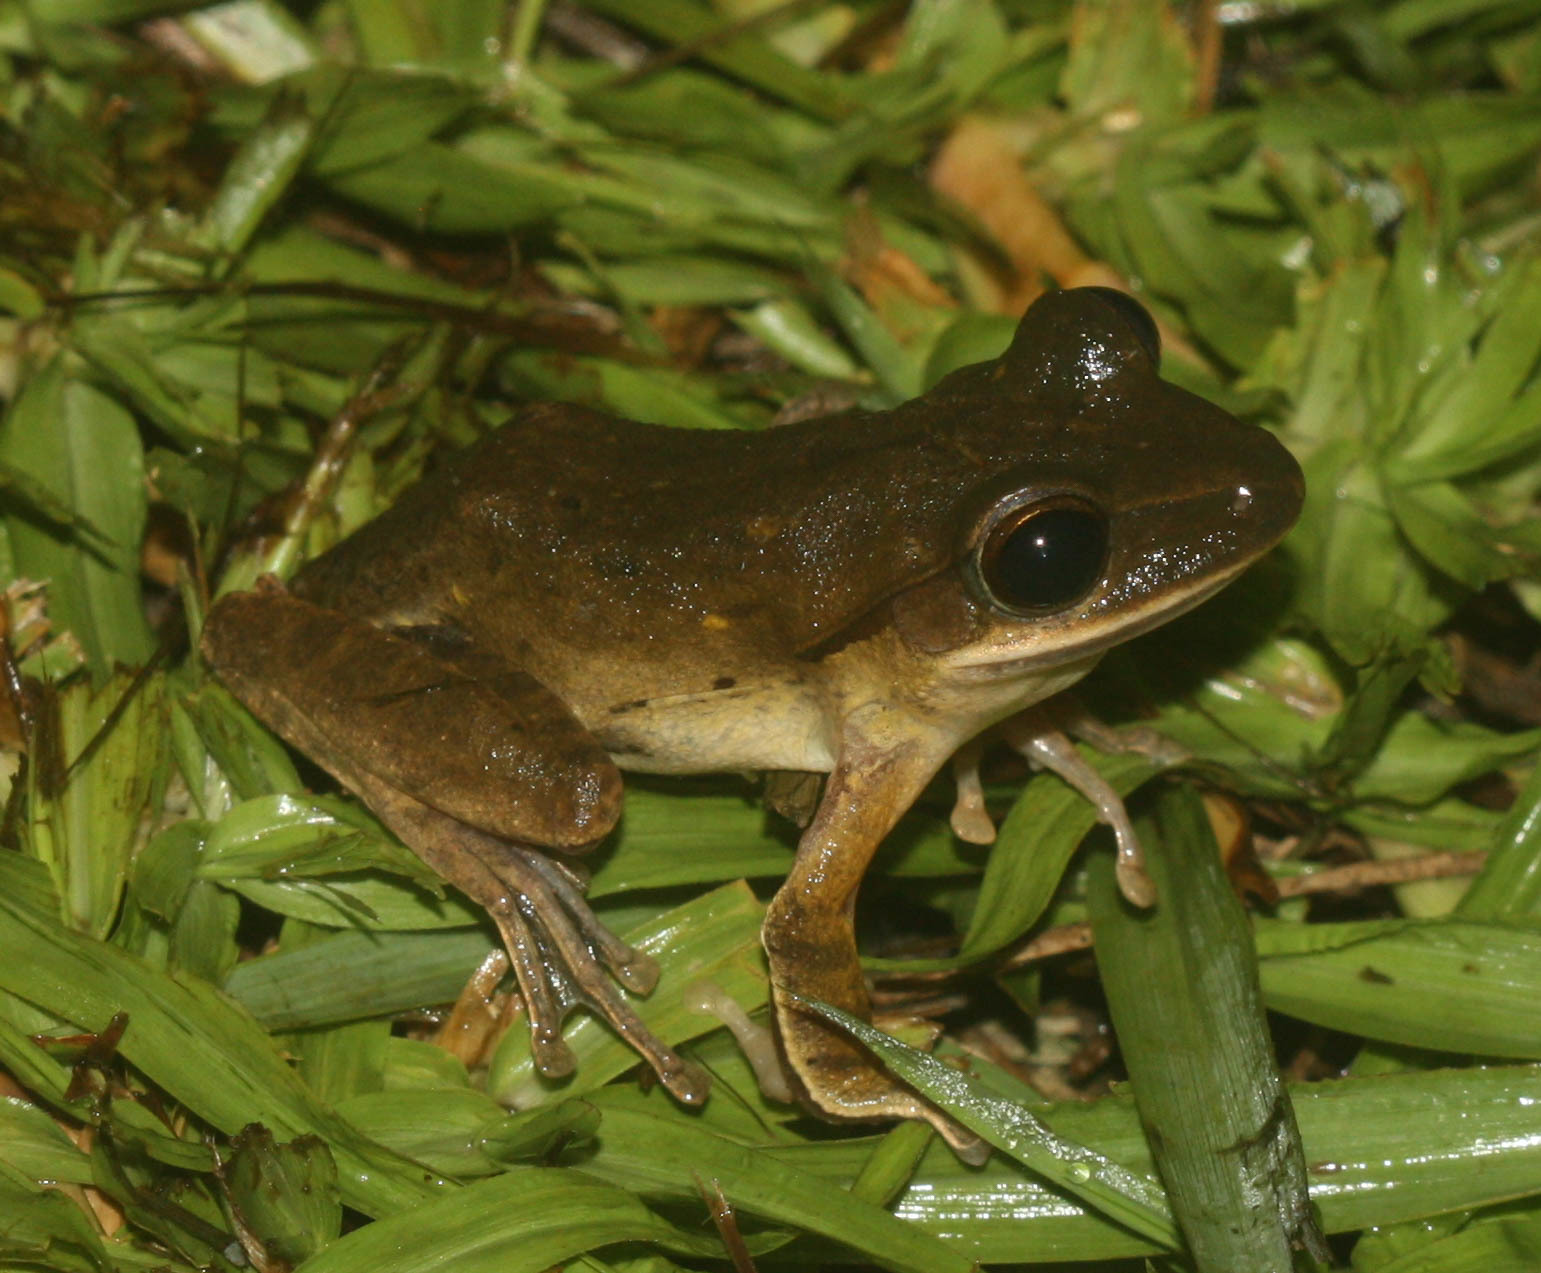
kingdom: Animalia
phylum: Chordata
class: Amphibia
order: Anura
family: Rhacophoridae
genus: Polypedates
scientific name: Polypedates megacephalus
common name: Hong kong whipping frog
